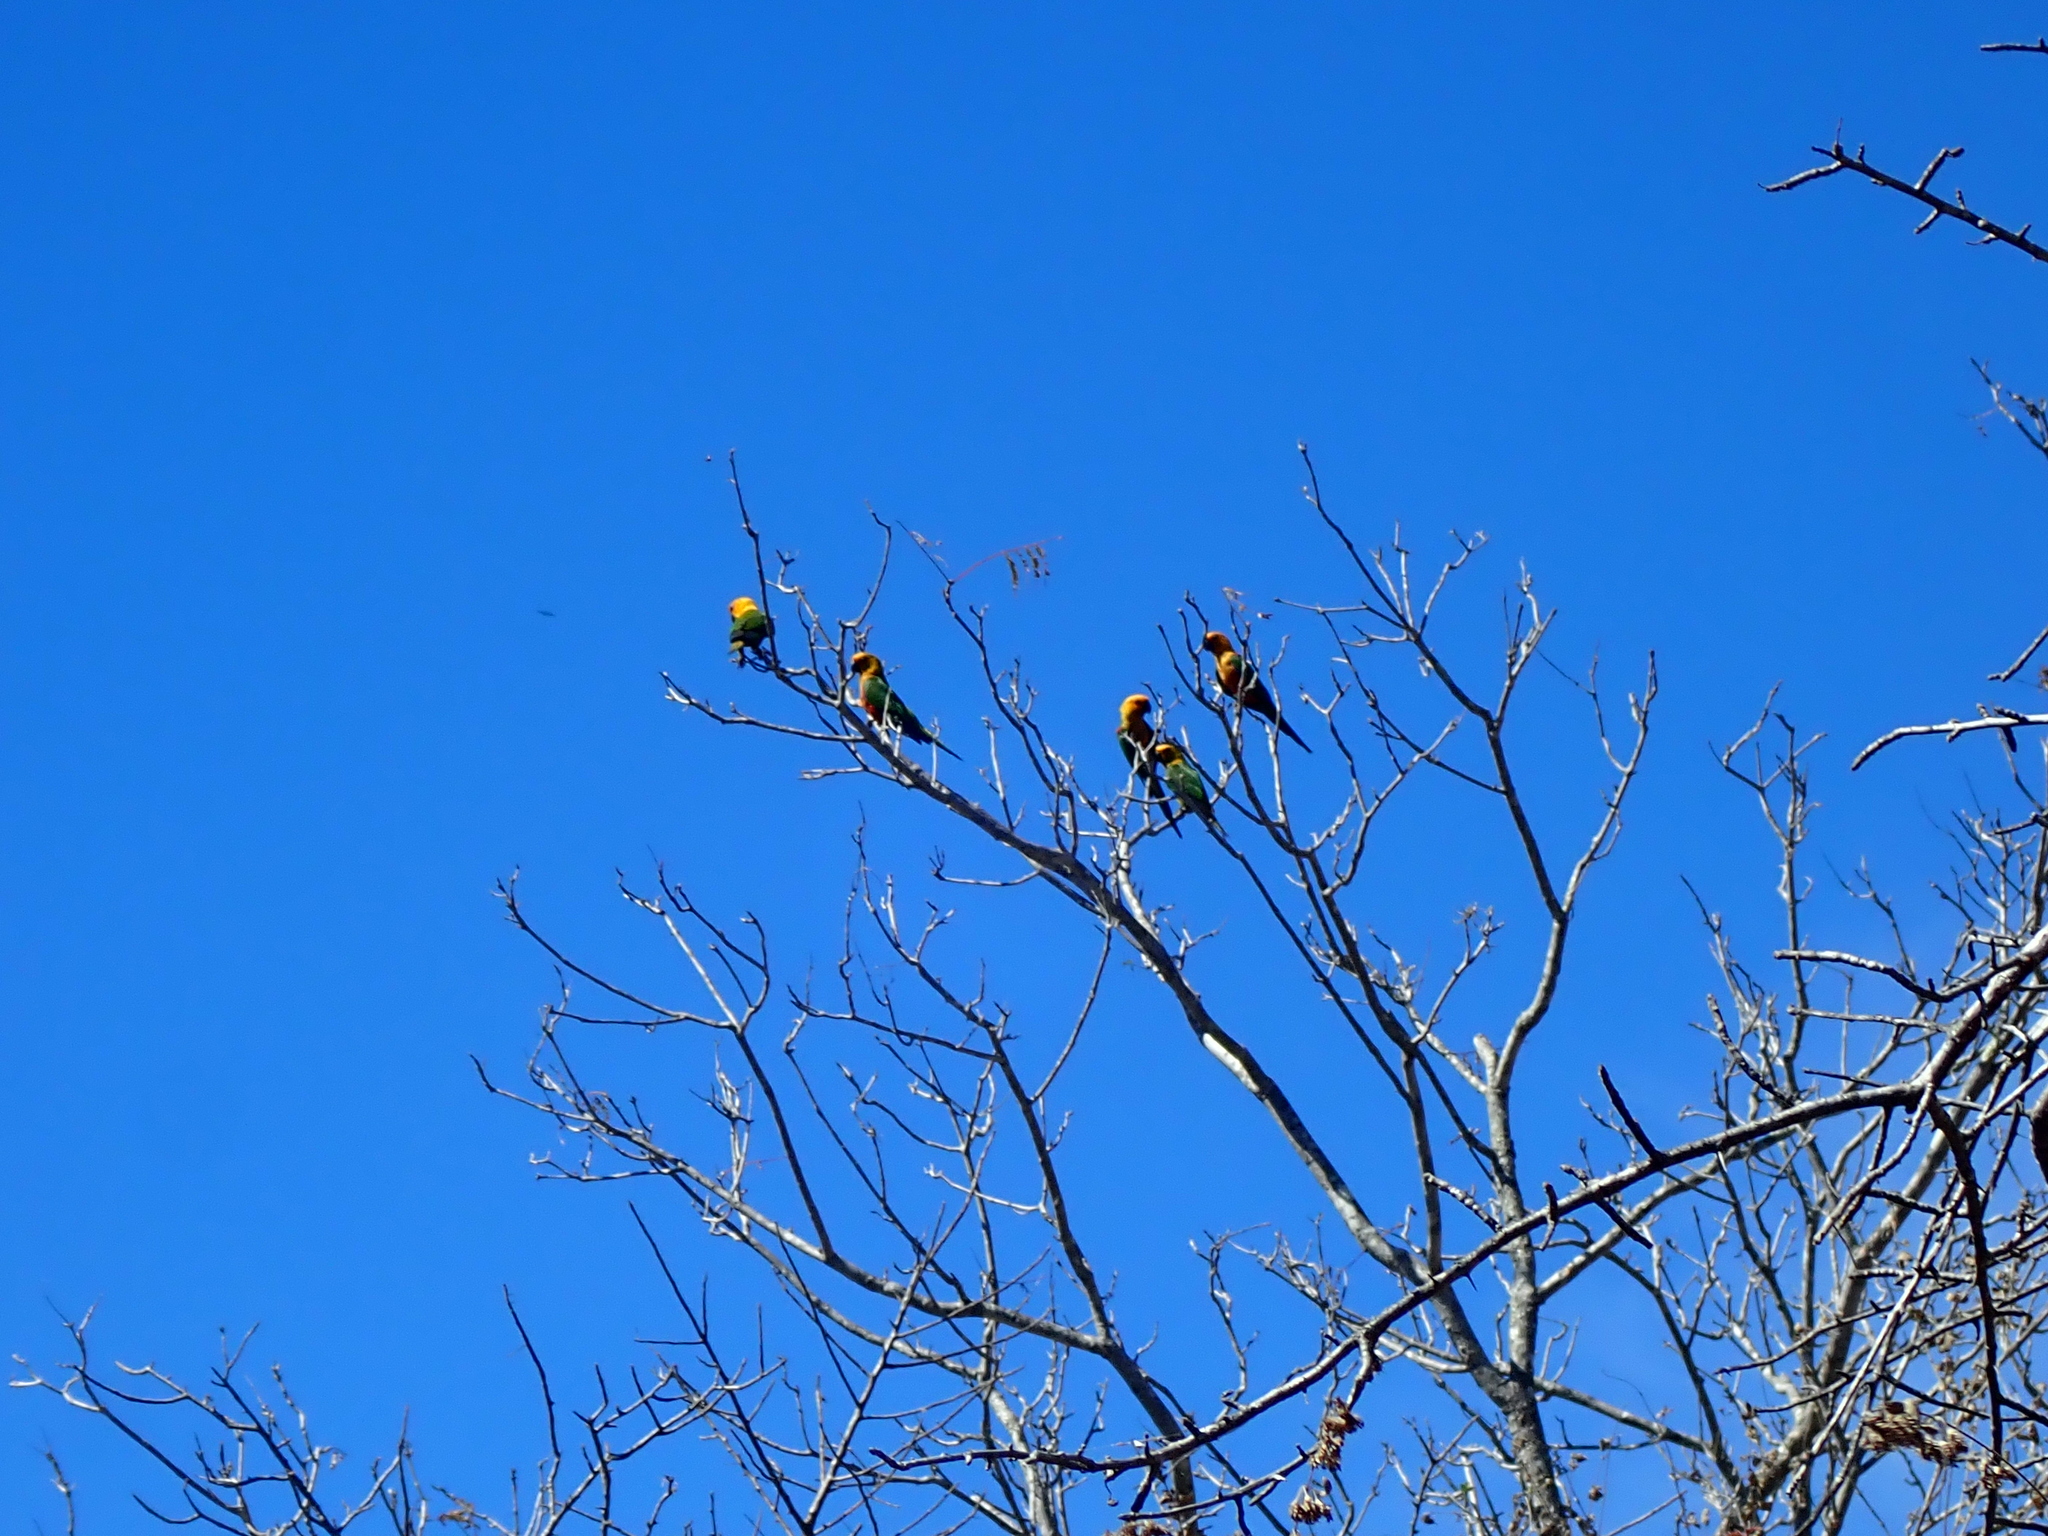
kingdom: Animalia
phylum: Chordata
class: Aves
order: Psittaciformes
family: Psittacidae
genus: Aratinga
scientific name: Aratinga jandaya
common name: Jandaya parakeet
